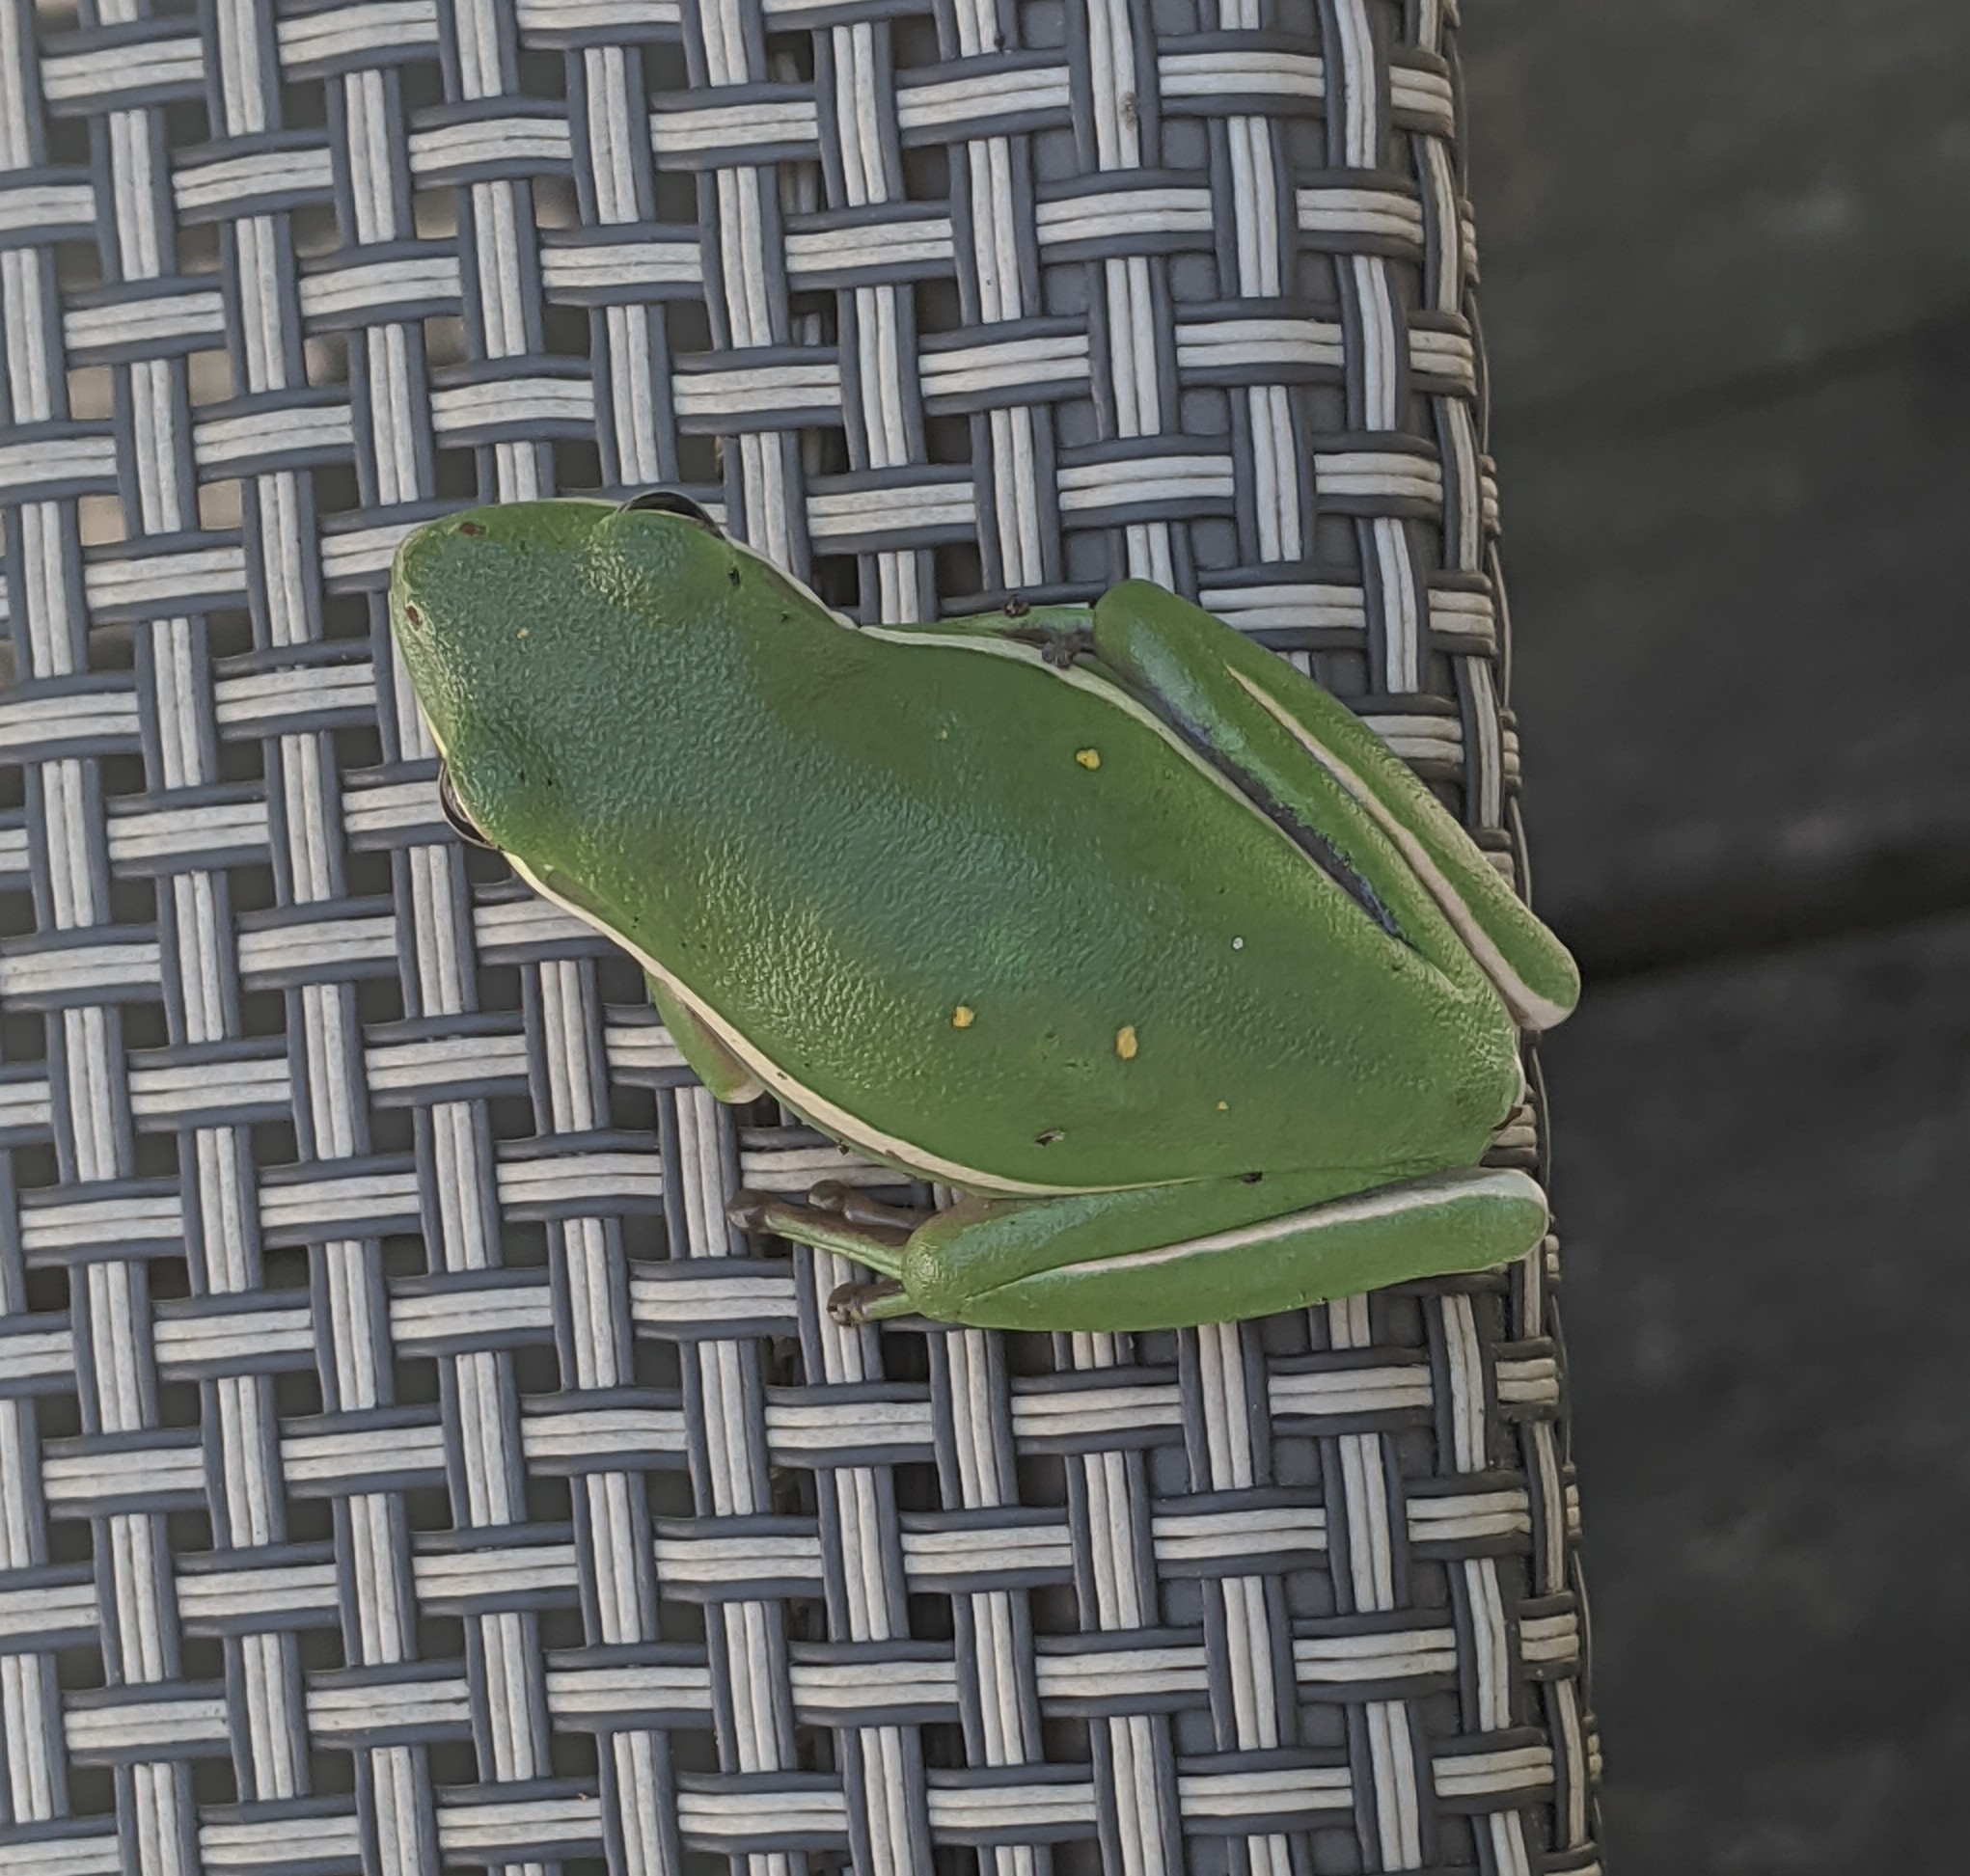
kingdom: Animalia
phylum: Chordata
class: Amphibia
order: Anura
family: Hylidae
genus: Dryophytes
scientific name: Dryophytes cinereus
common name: Green treefrog
